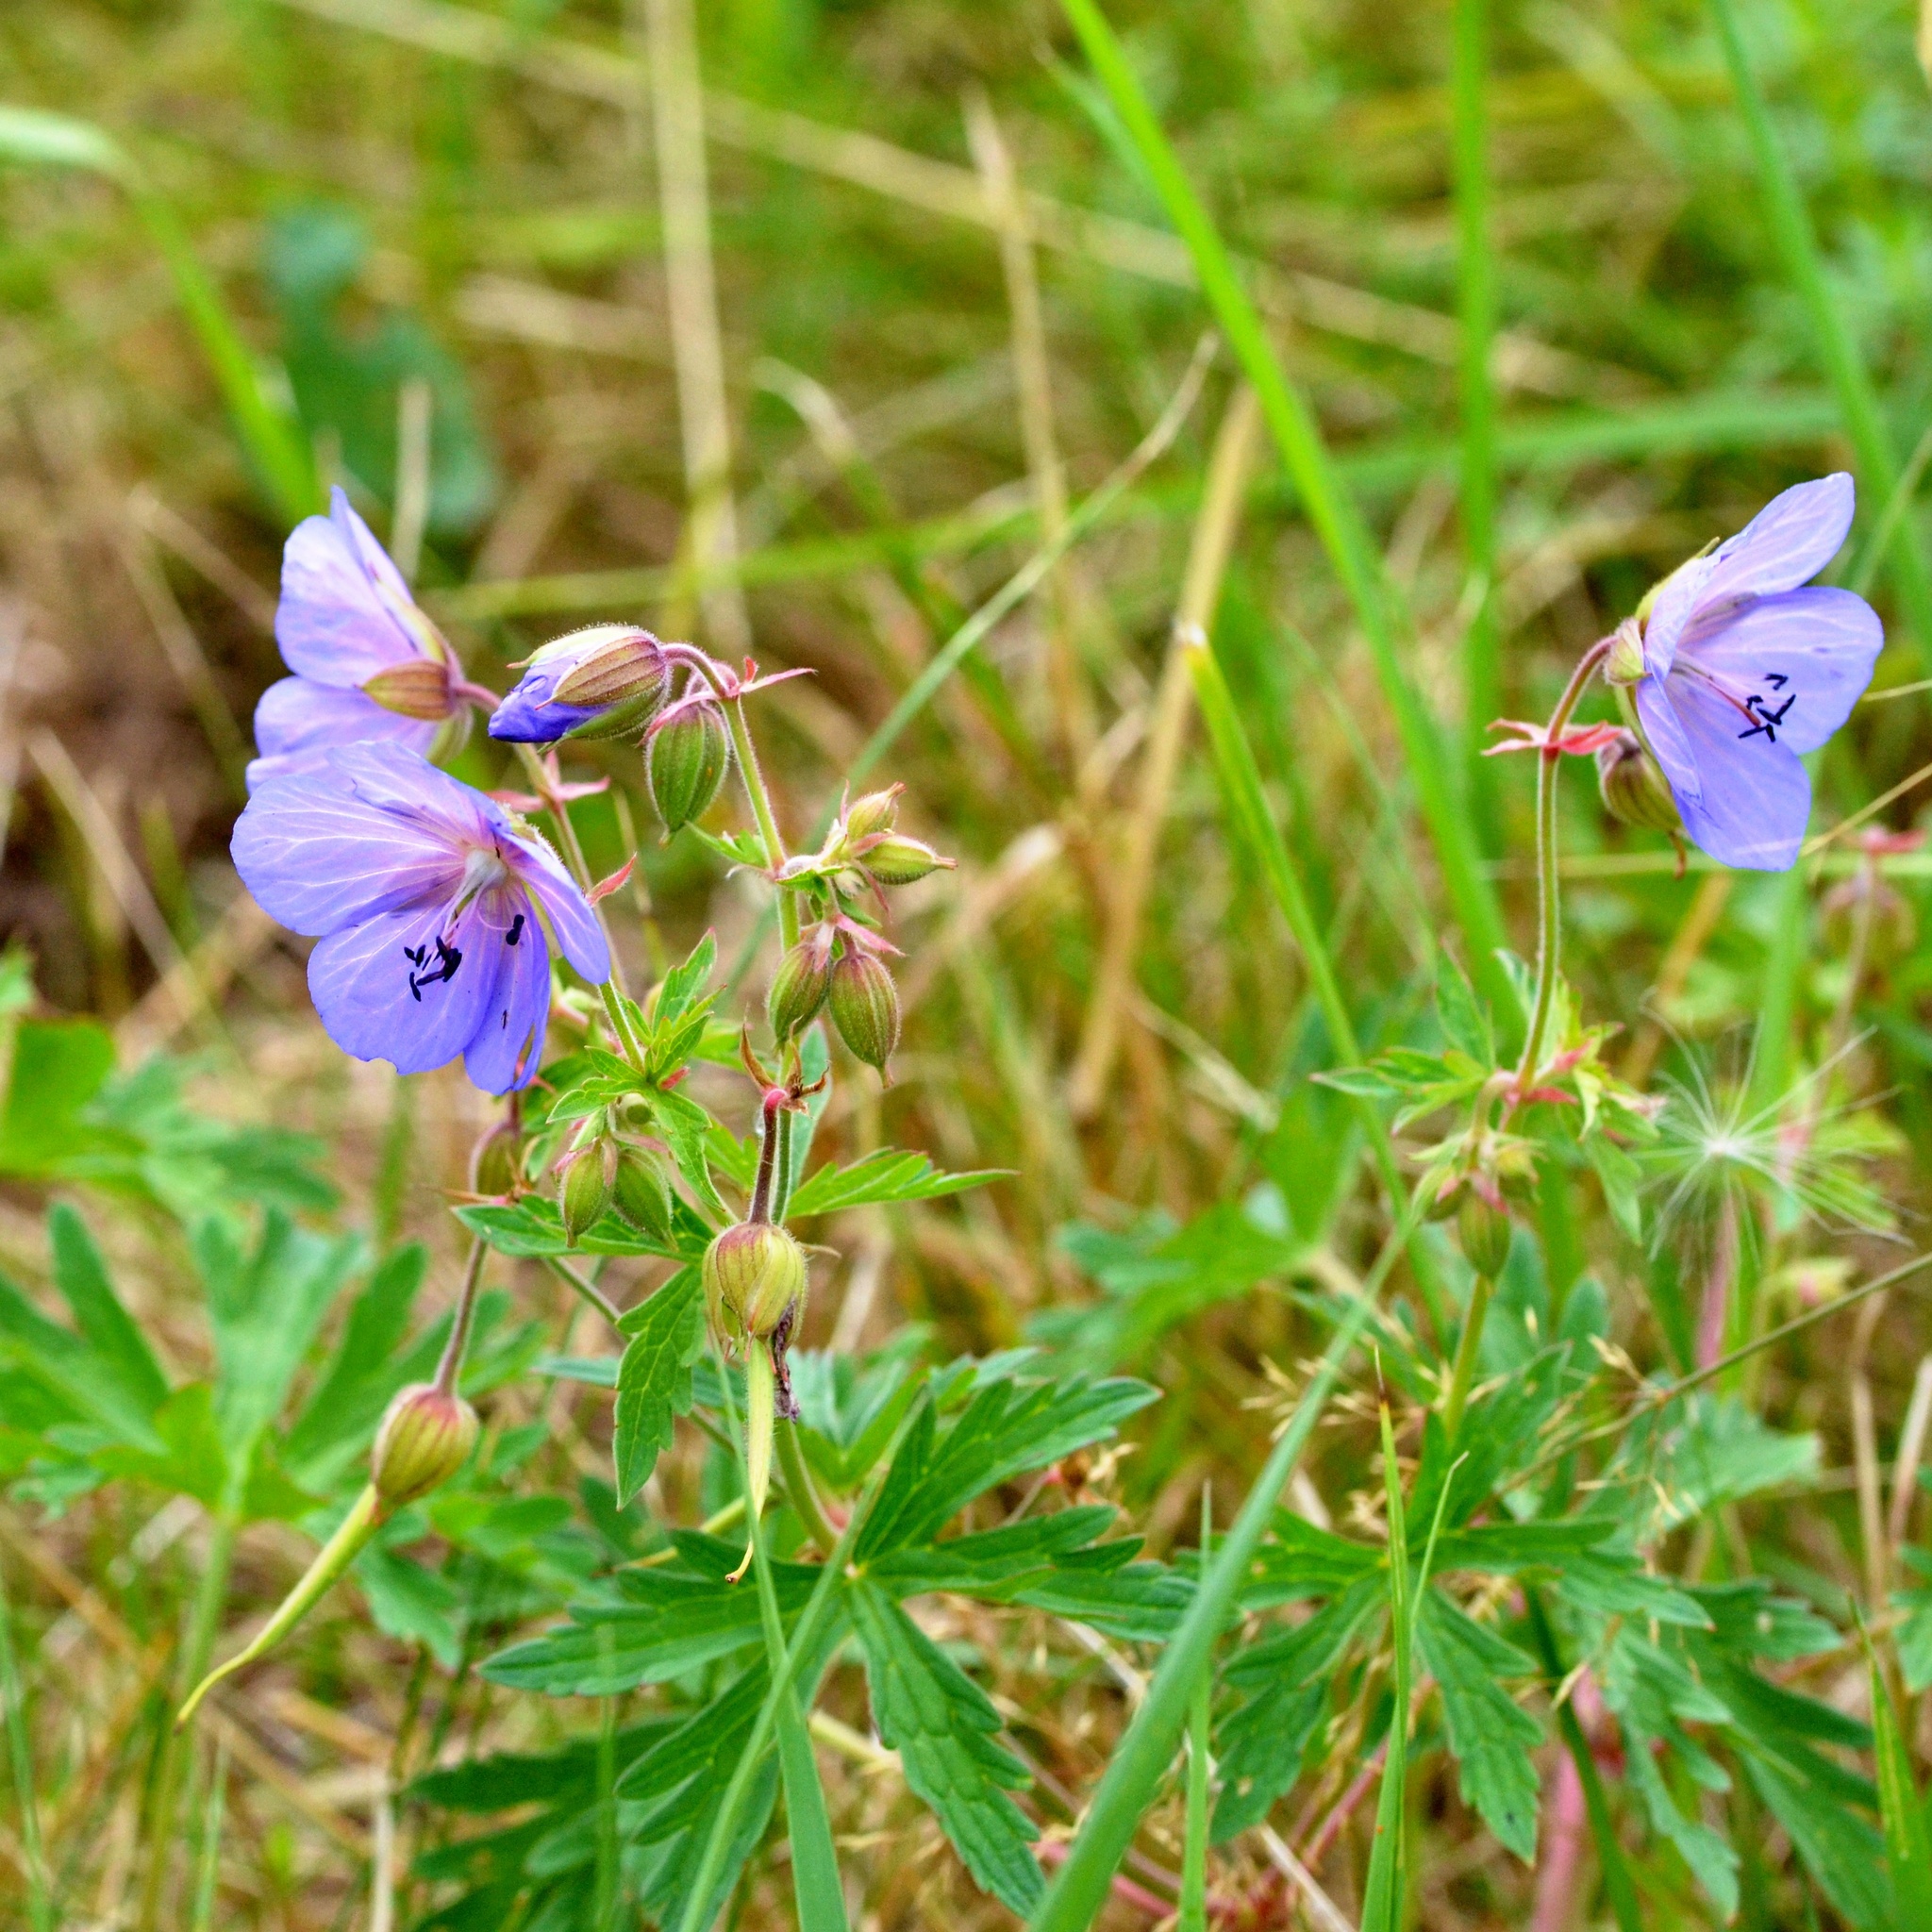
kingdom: Plantae
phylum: Tracheophyta
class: Magnoliopsida
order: Geraniales
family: Geraniaceae
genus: Geranium
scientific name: Geranium pratense
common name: Meadow crane's-bill
